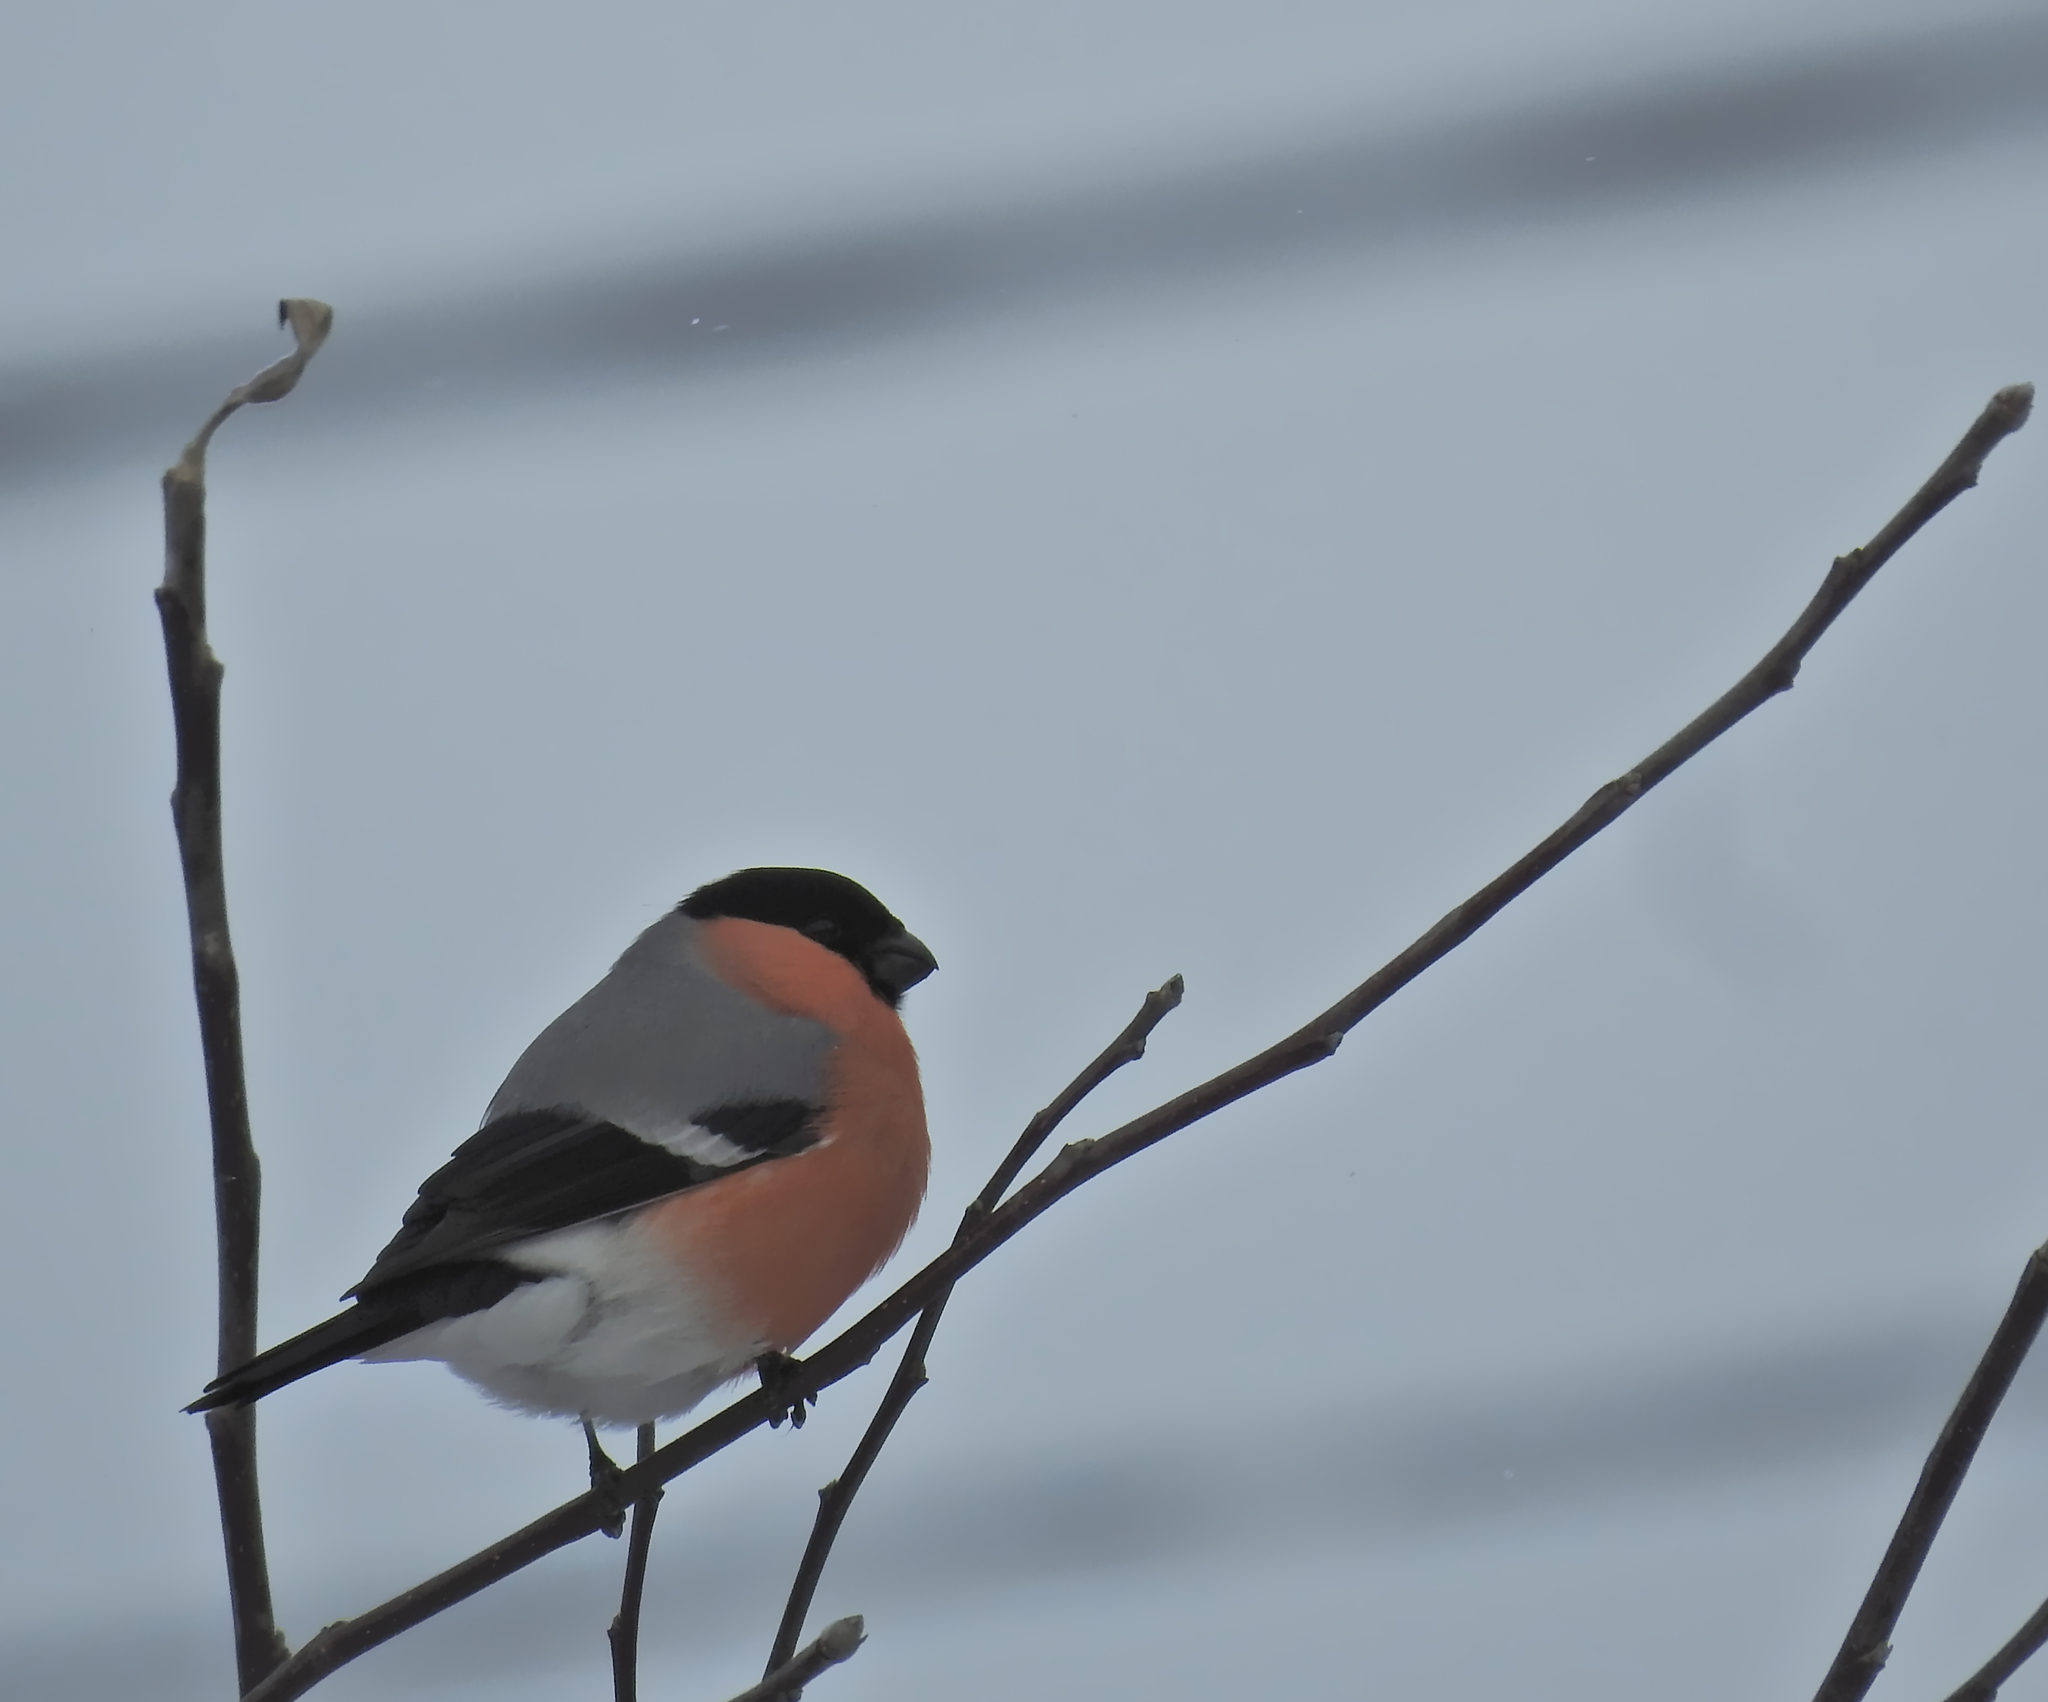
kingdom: Animalia
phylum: Chordata
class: Aves
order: Passeriformes
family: Fringillidae
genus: Pyrrhula
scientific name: Pyrrhula pyrrhula
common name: Eurasian bullfinch
